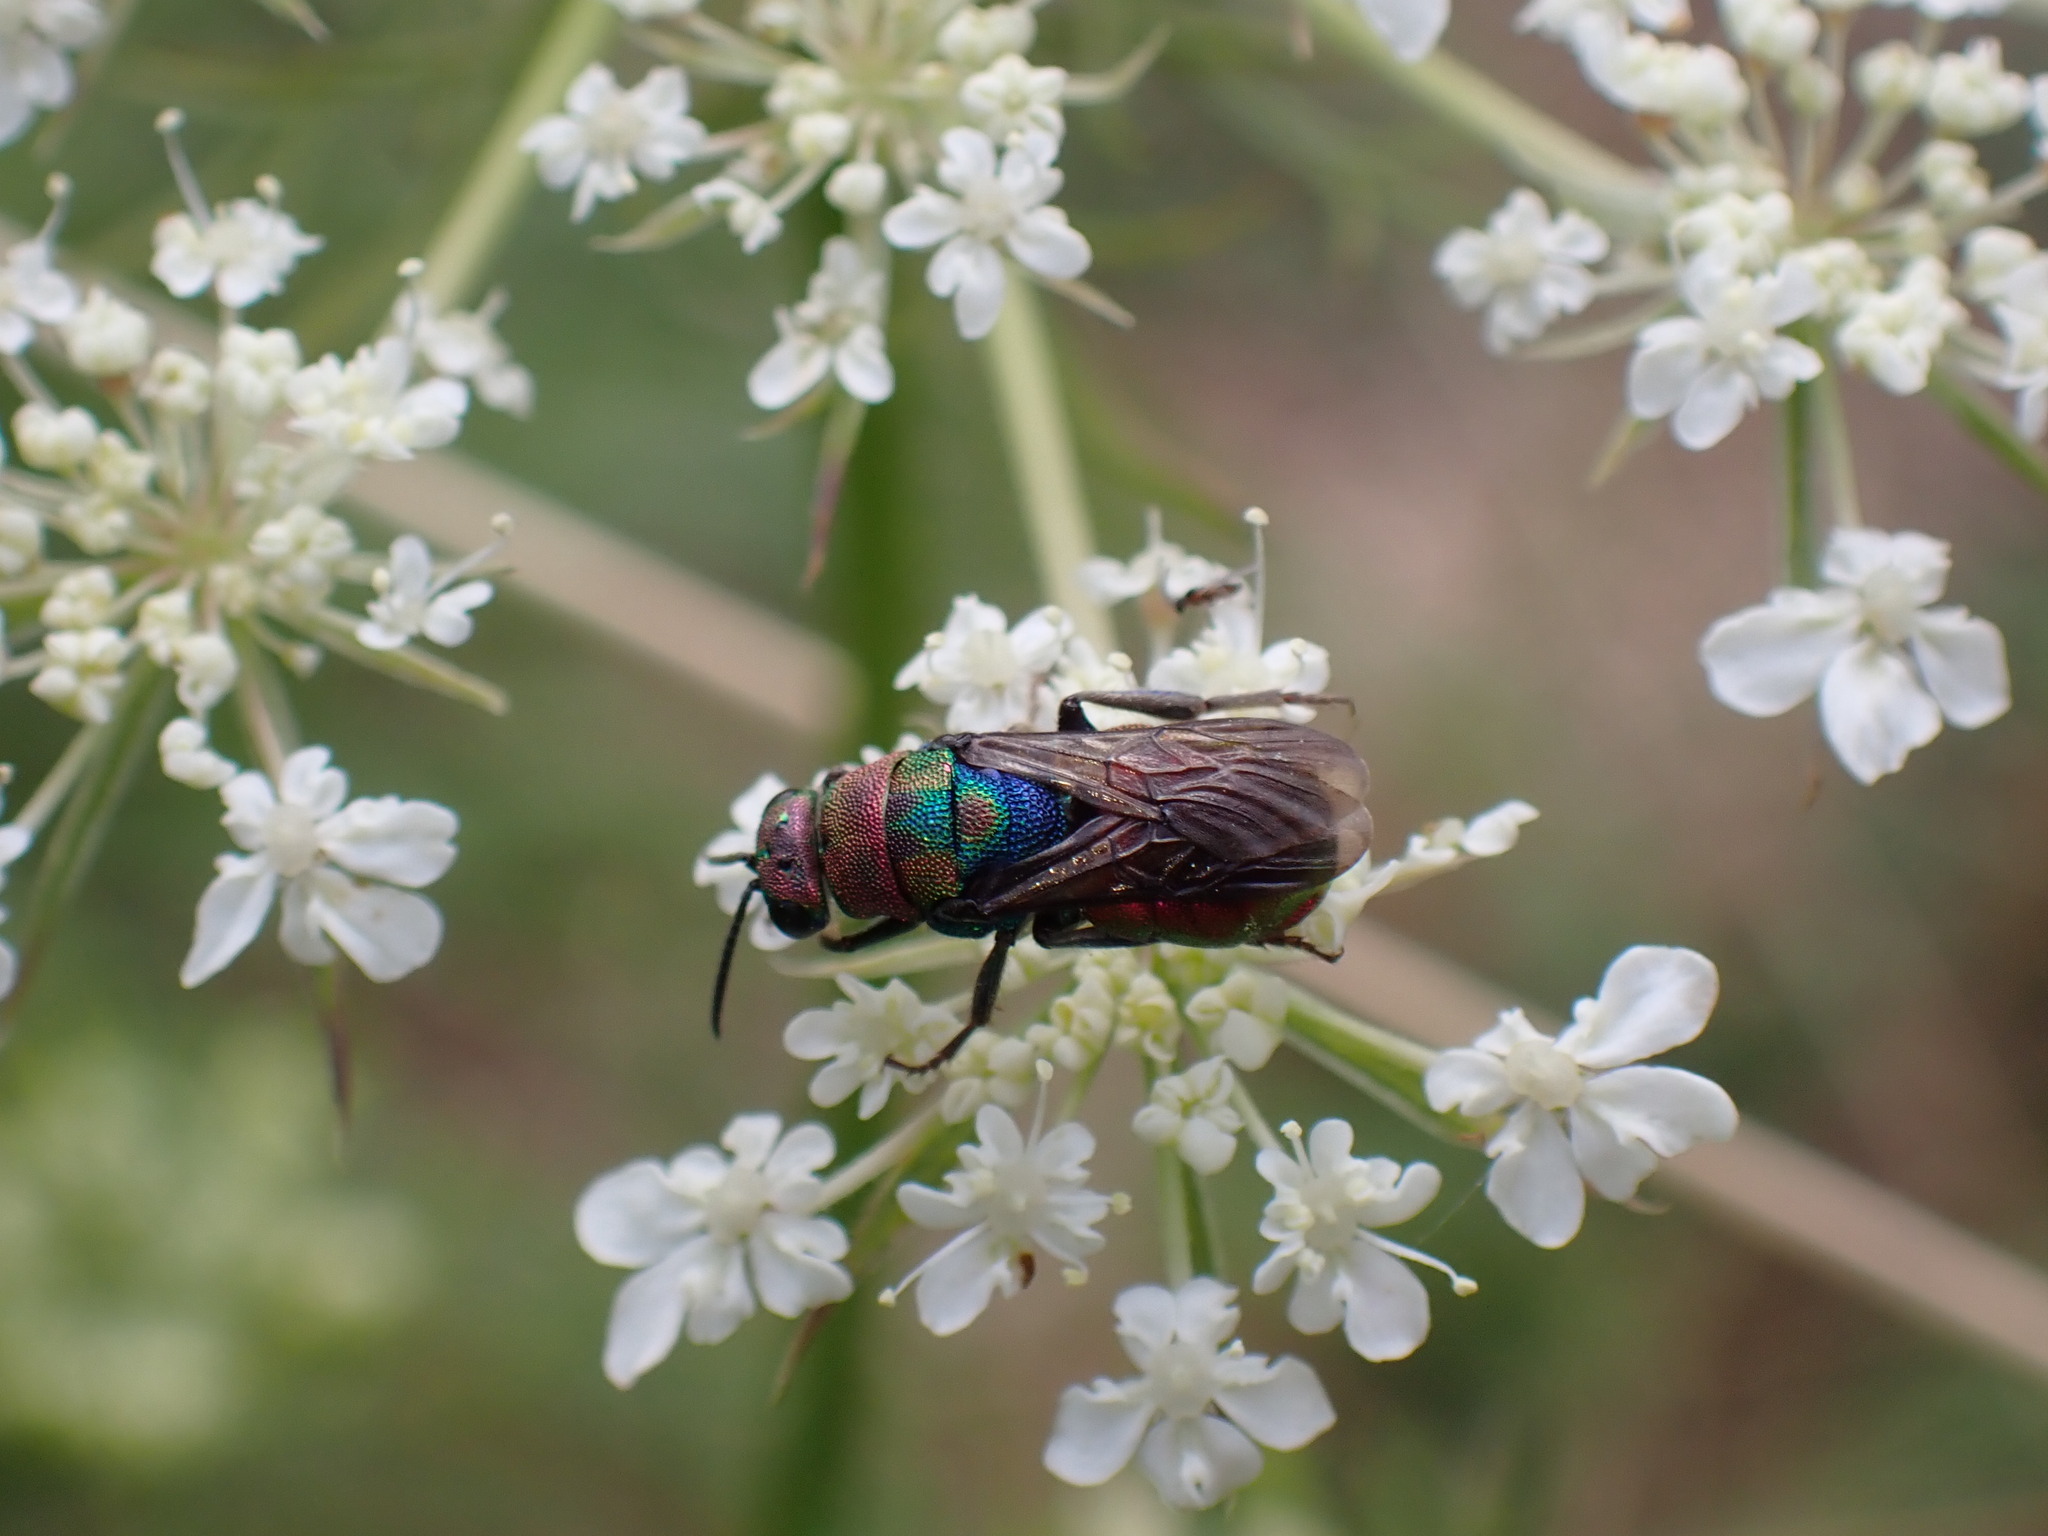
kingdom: Animalia
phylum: Arthropoda
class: Insecta
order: Hymenoptera
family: Chrysididae
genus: Hedychrum
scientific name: Hedychrum rutilans
